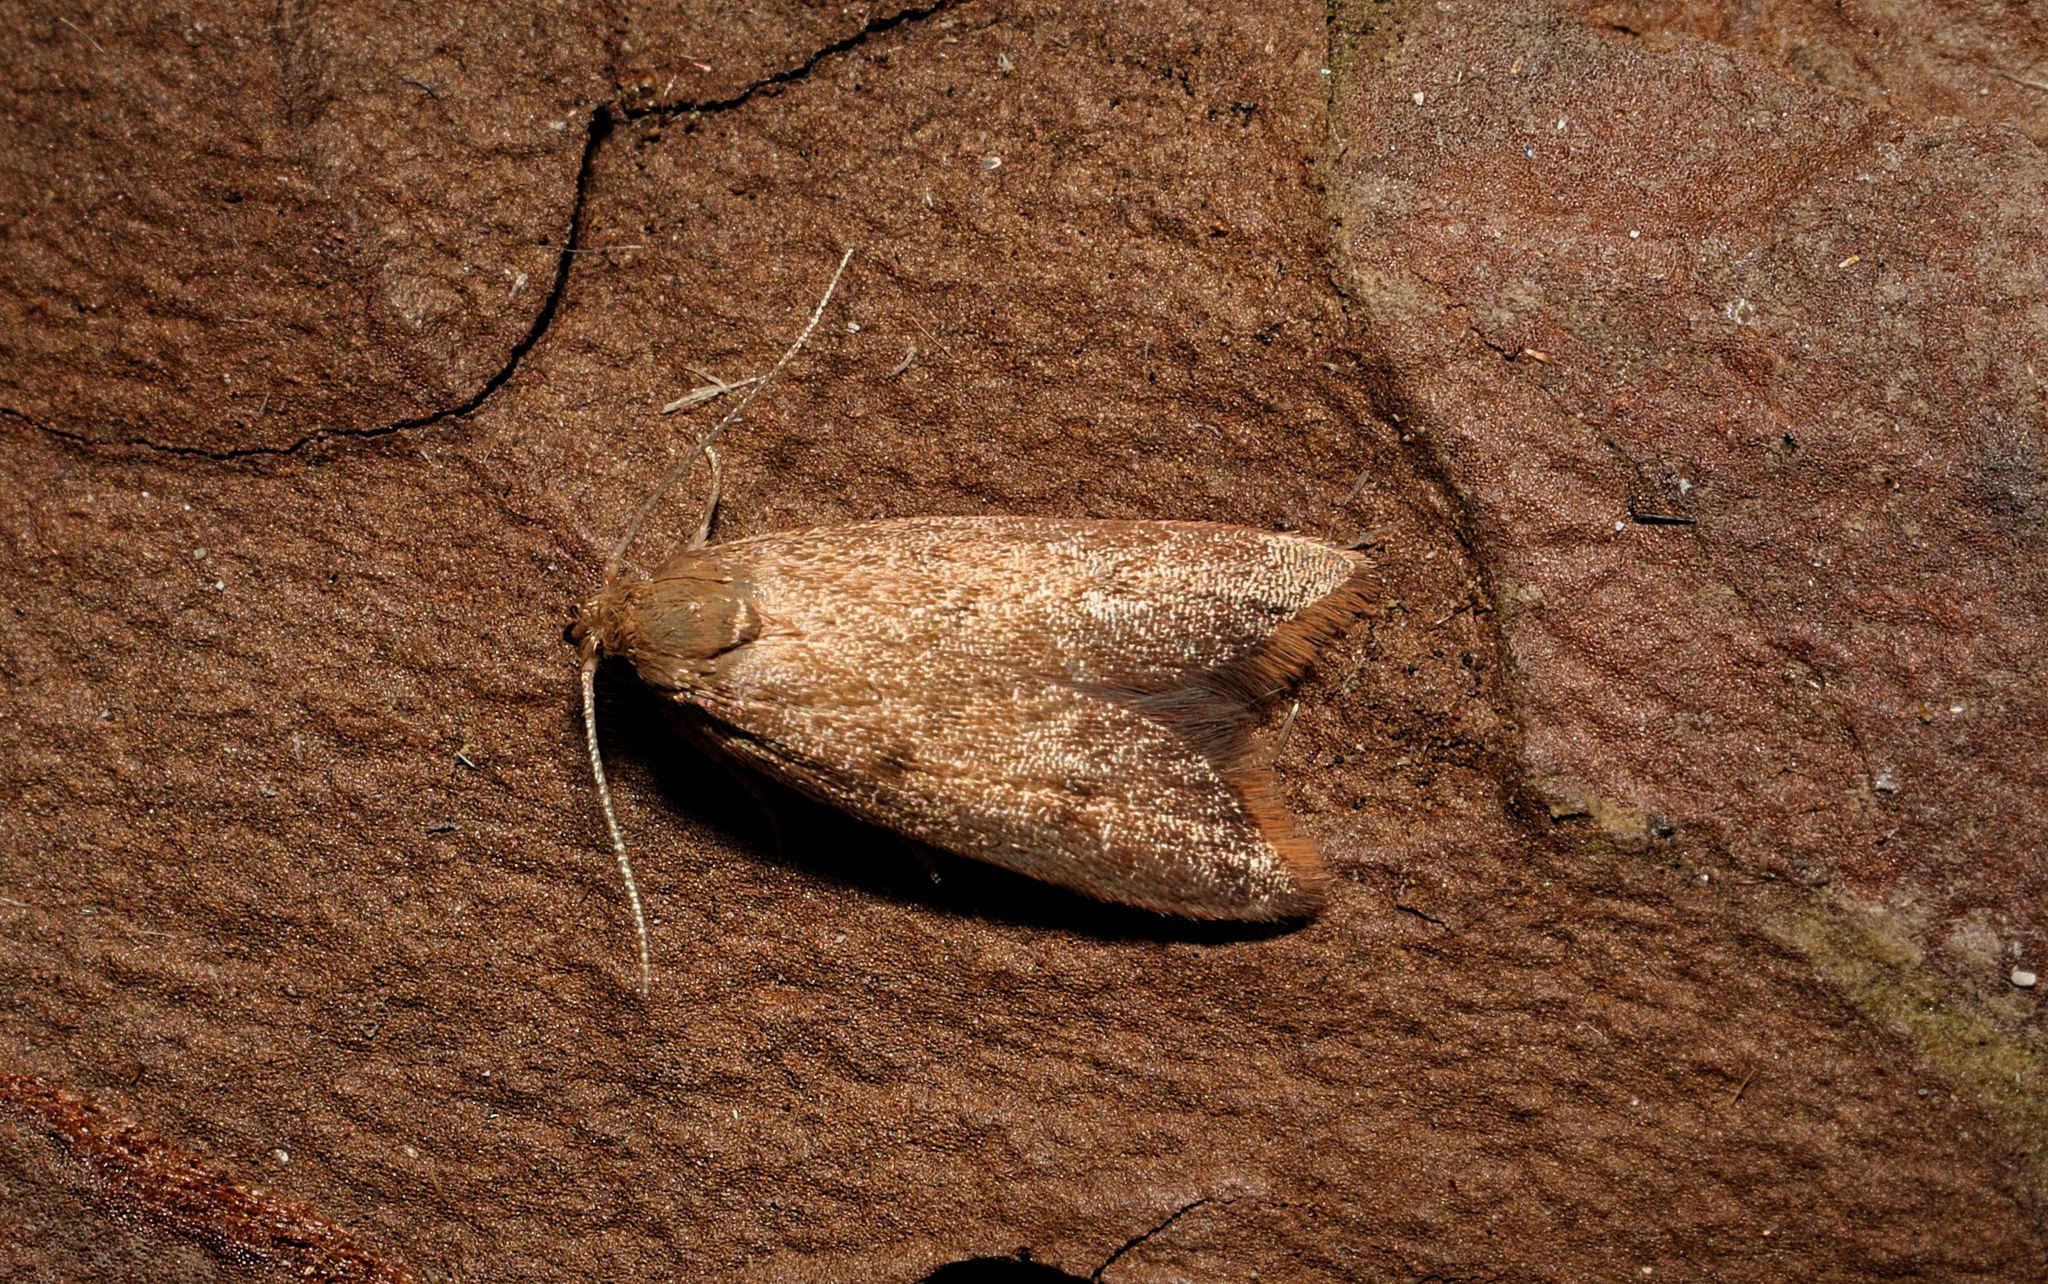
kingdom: Animalia
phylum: Arthropoda
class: Insecta
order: Lepidoptera
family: Oecophoridae
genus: Tachystola
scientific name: Tachystola acroxantha
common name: Ruddy streak
